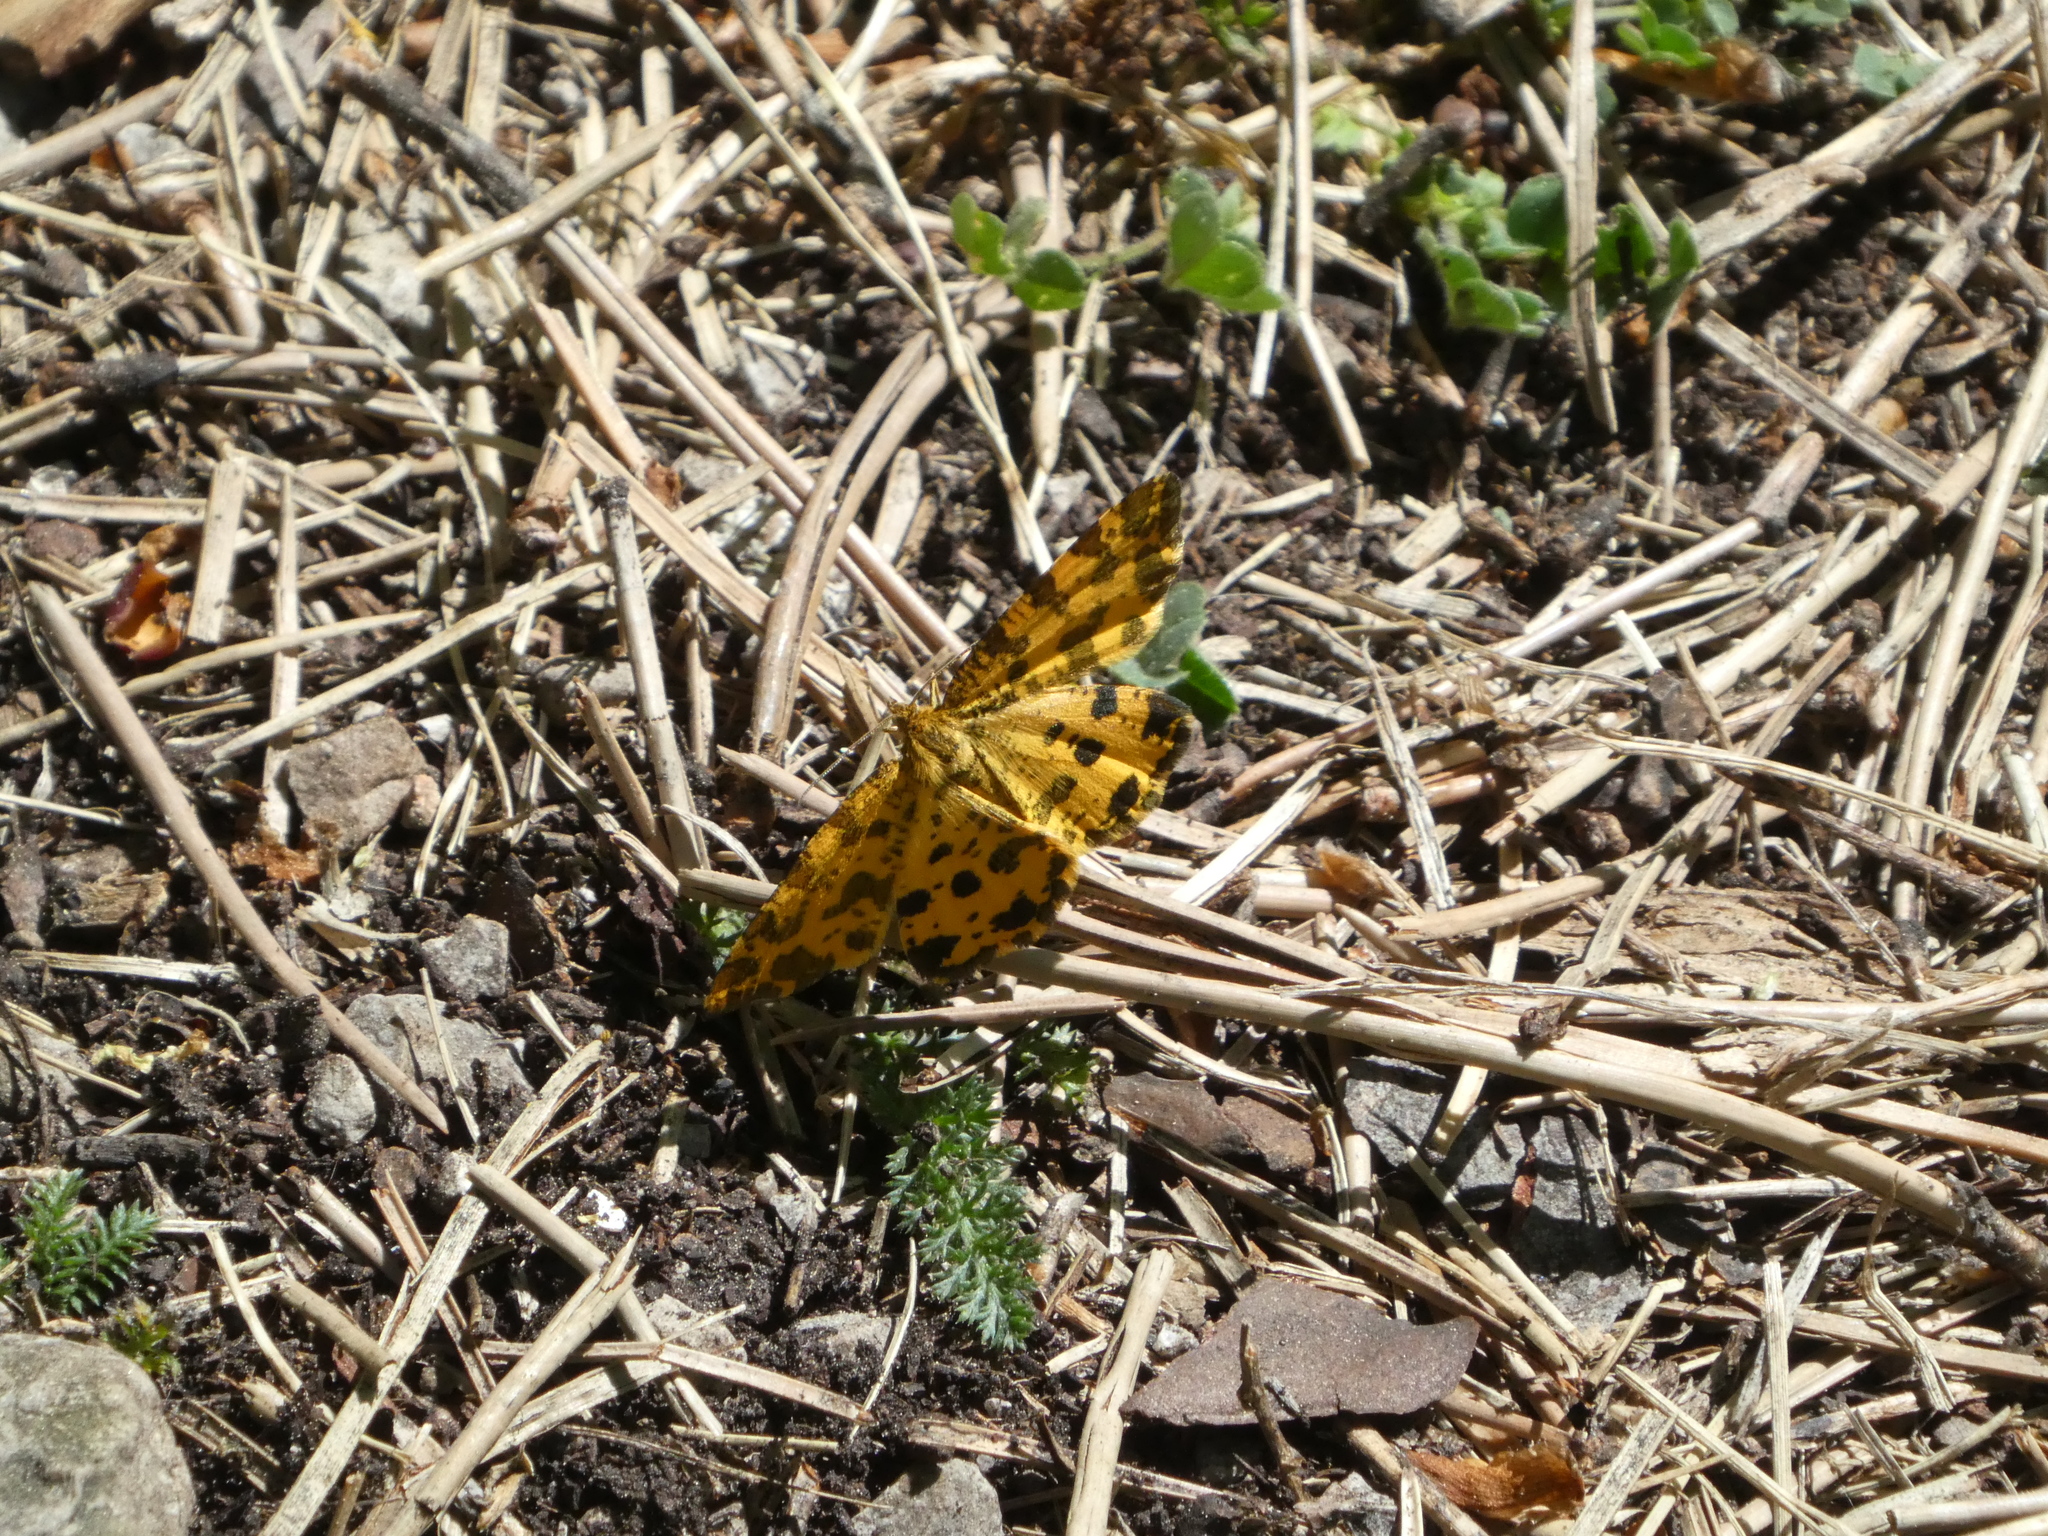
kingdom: Animalia
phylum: Arthropoda
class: Insecta
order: Lepidoptera
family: Geometridae
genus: Pseudopanthera
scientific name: Pseudopanthera macularia
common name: Speckled yellow
